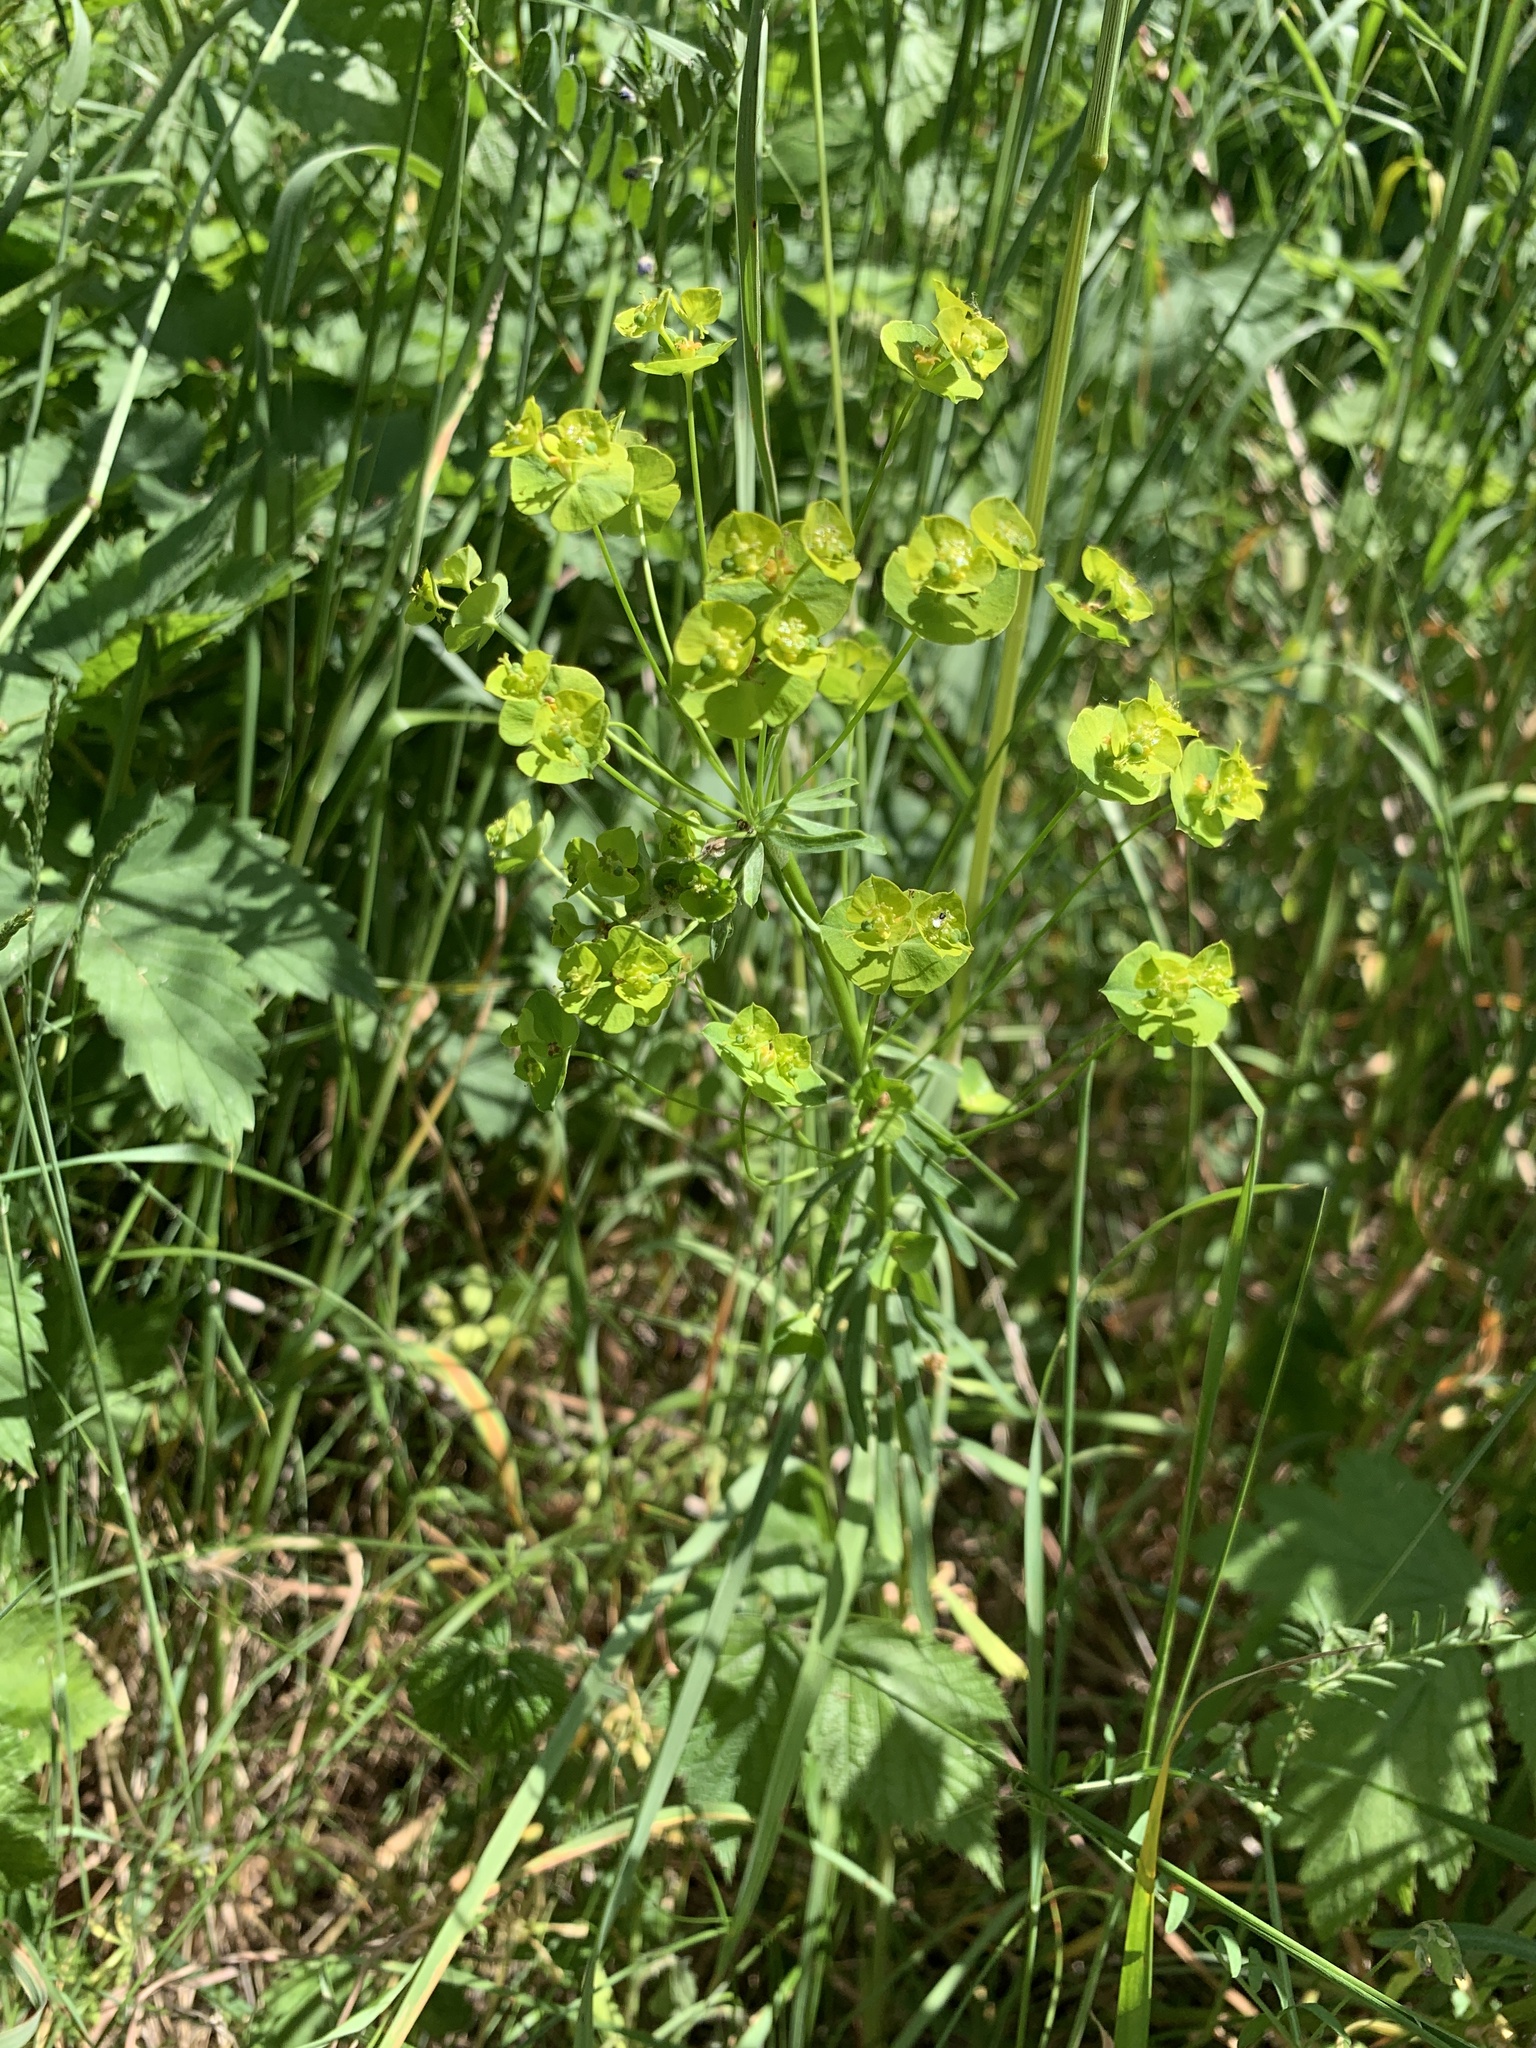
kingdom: Plantae
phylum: Tracheophyta
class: Magnoliopsida
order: Malpighiales
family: Euphorbiaceae
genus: Euphorbia
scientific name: Euphorbia esula
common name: Leafy spurge
